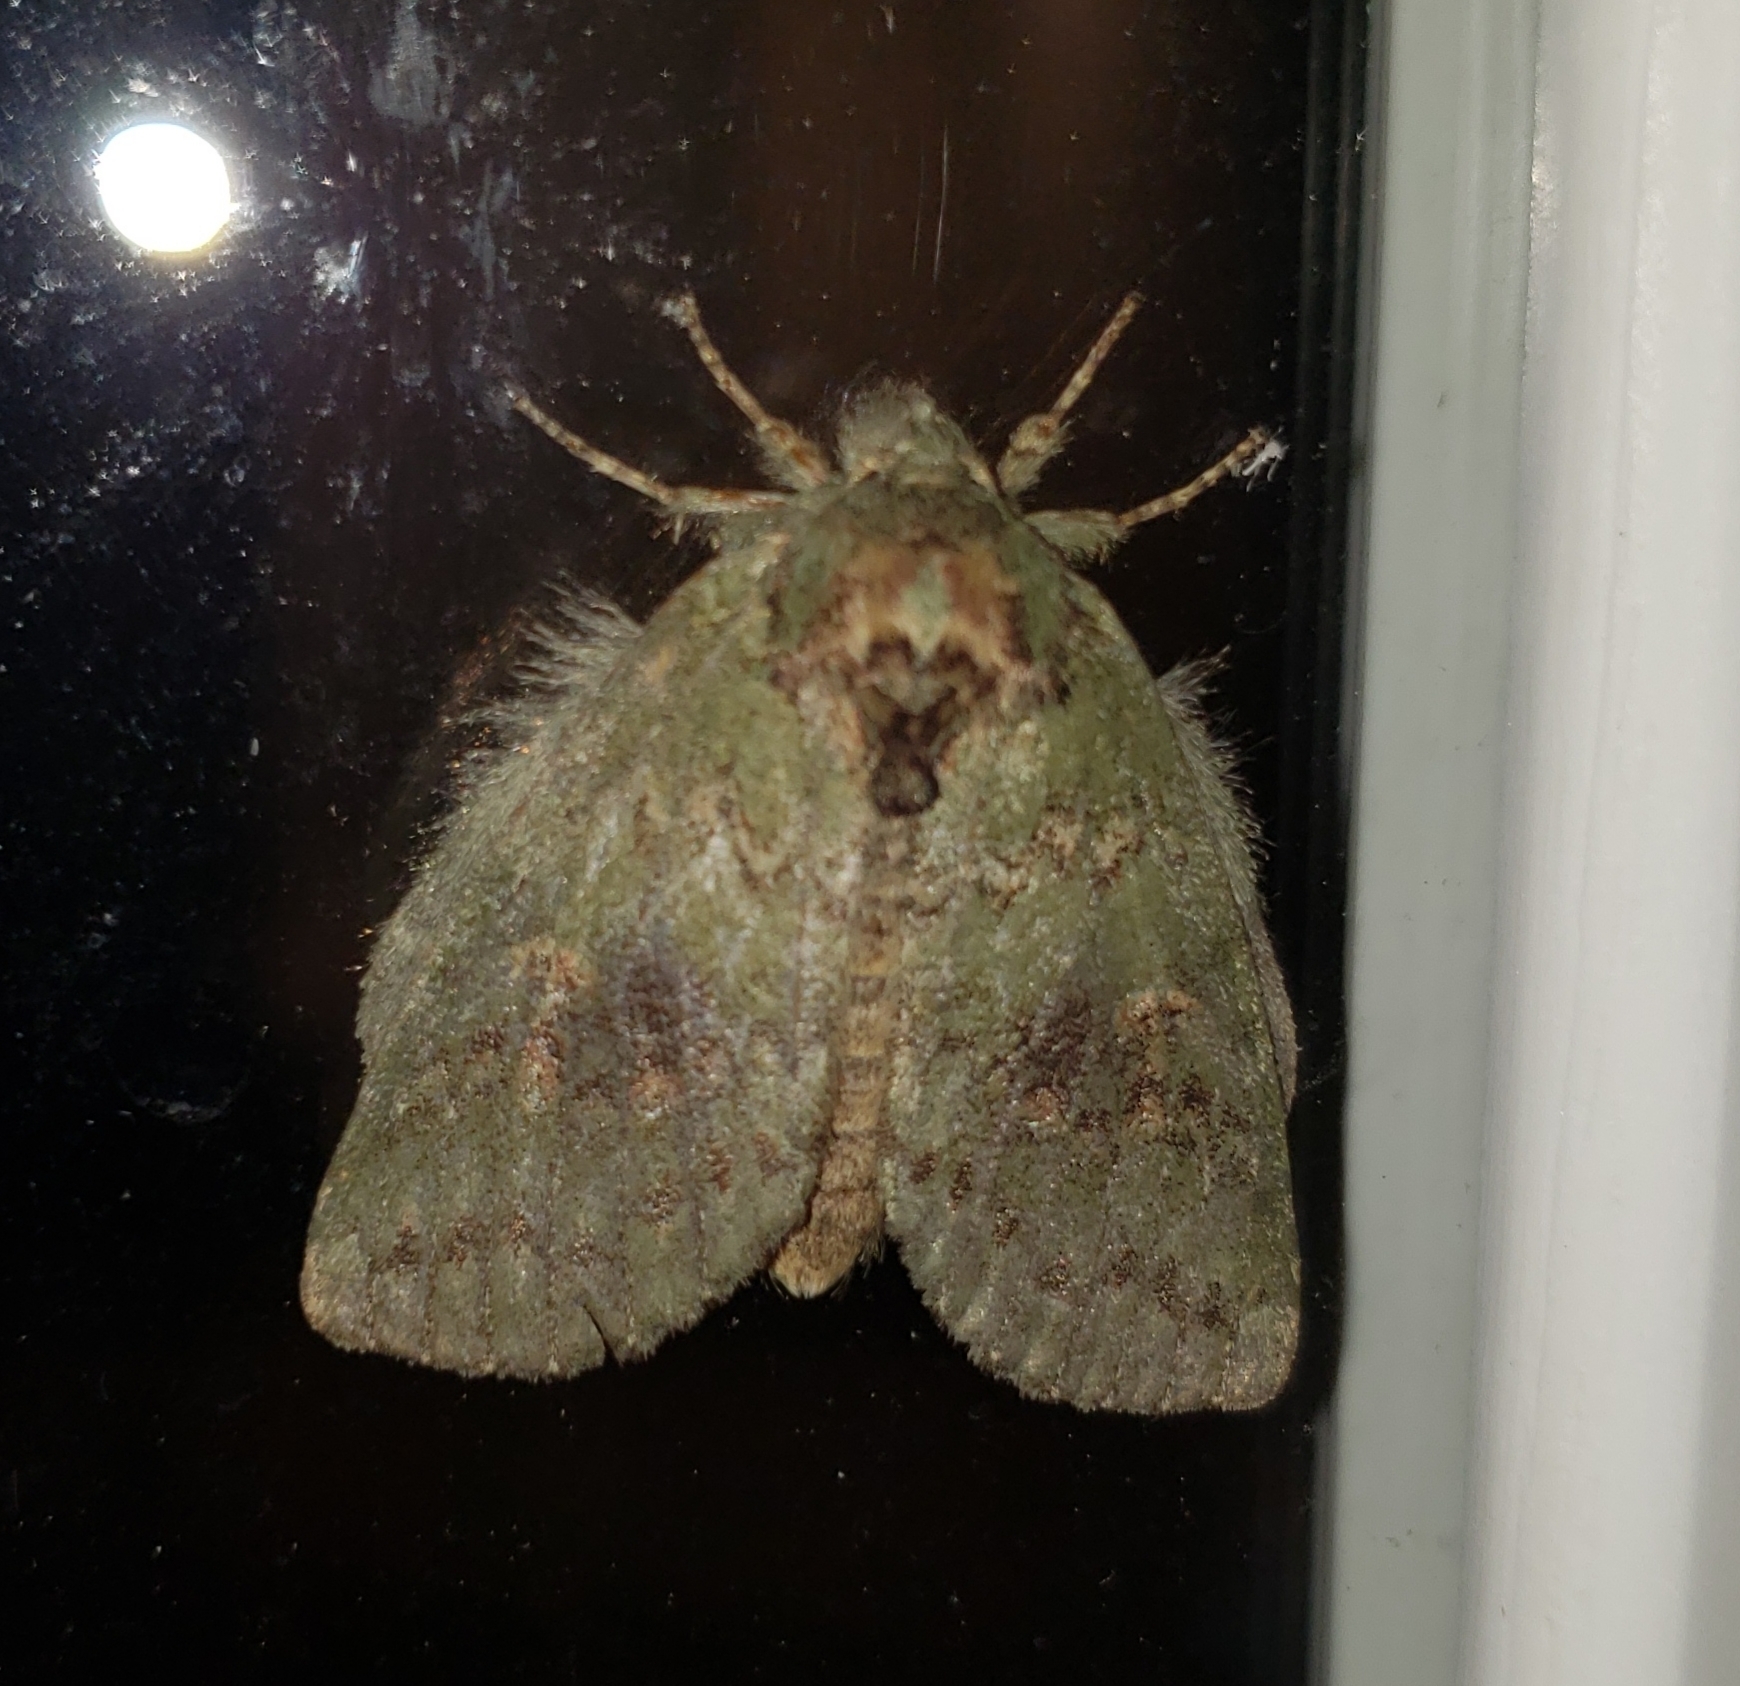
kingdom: Animalia
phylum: Arthropoda
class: Insecta
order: Lepidoptera
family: Notodontidae
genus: Disphragis
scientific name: Disphragis Cecrita biundata
